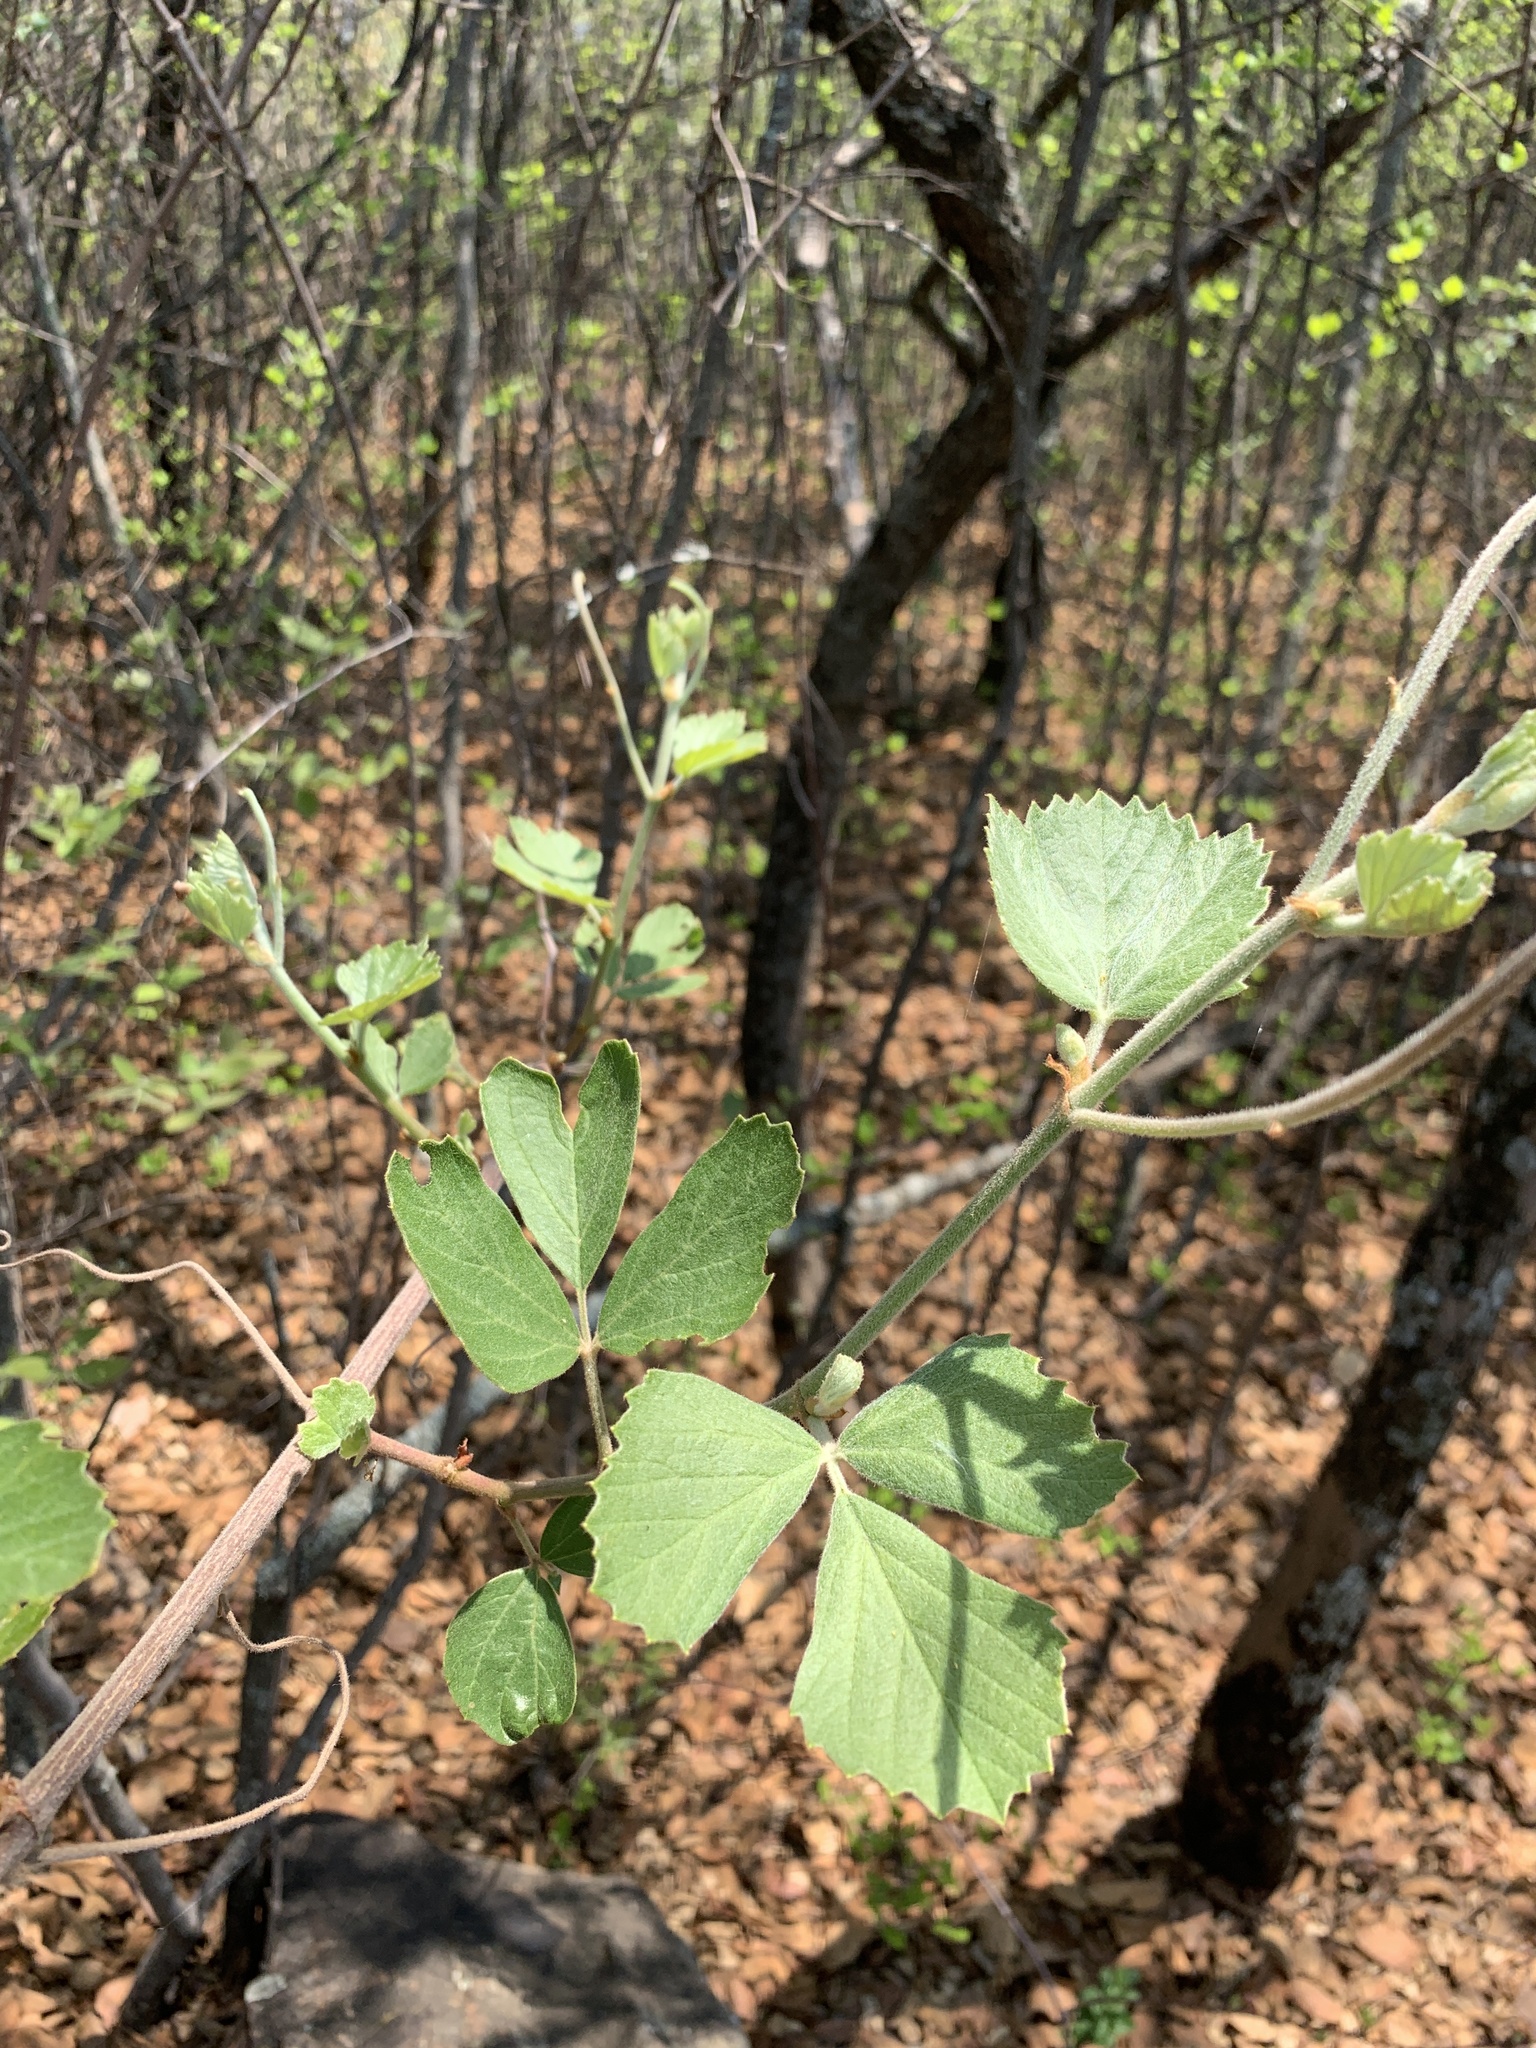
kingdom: Plantae
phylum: Tracheophyta
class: Magnoliopsida
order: Vitales
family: Vitaceae
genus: Rhoicissus
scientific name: Rhoicissus tridentata
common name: Common forest grape
